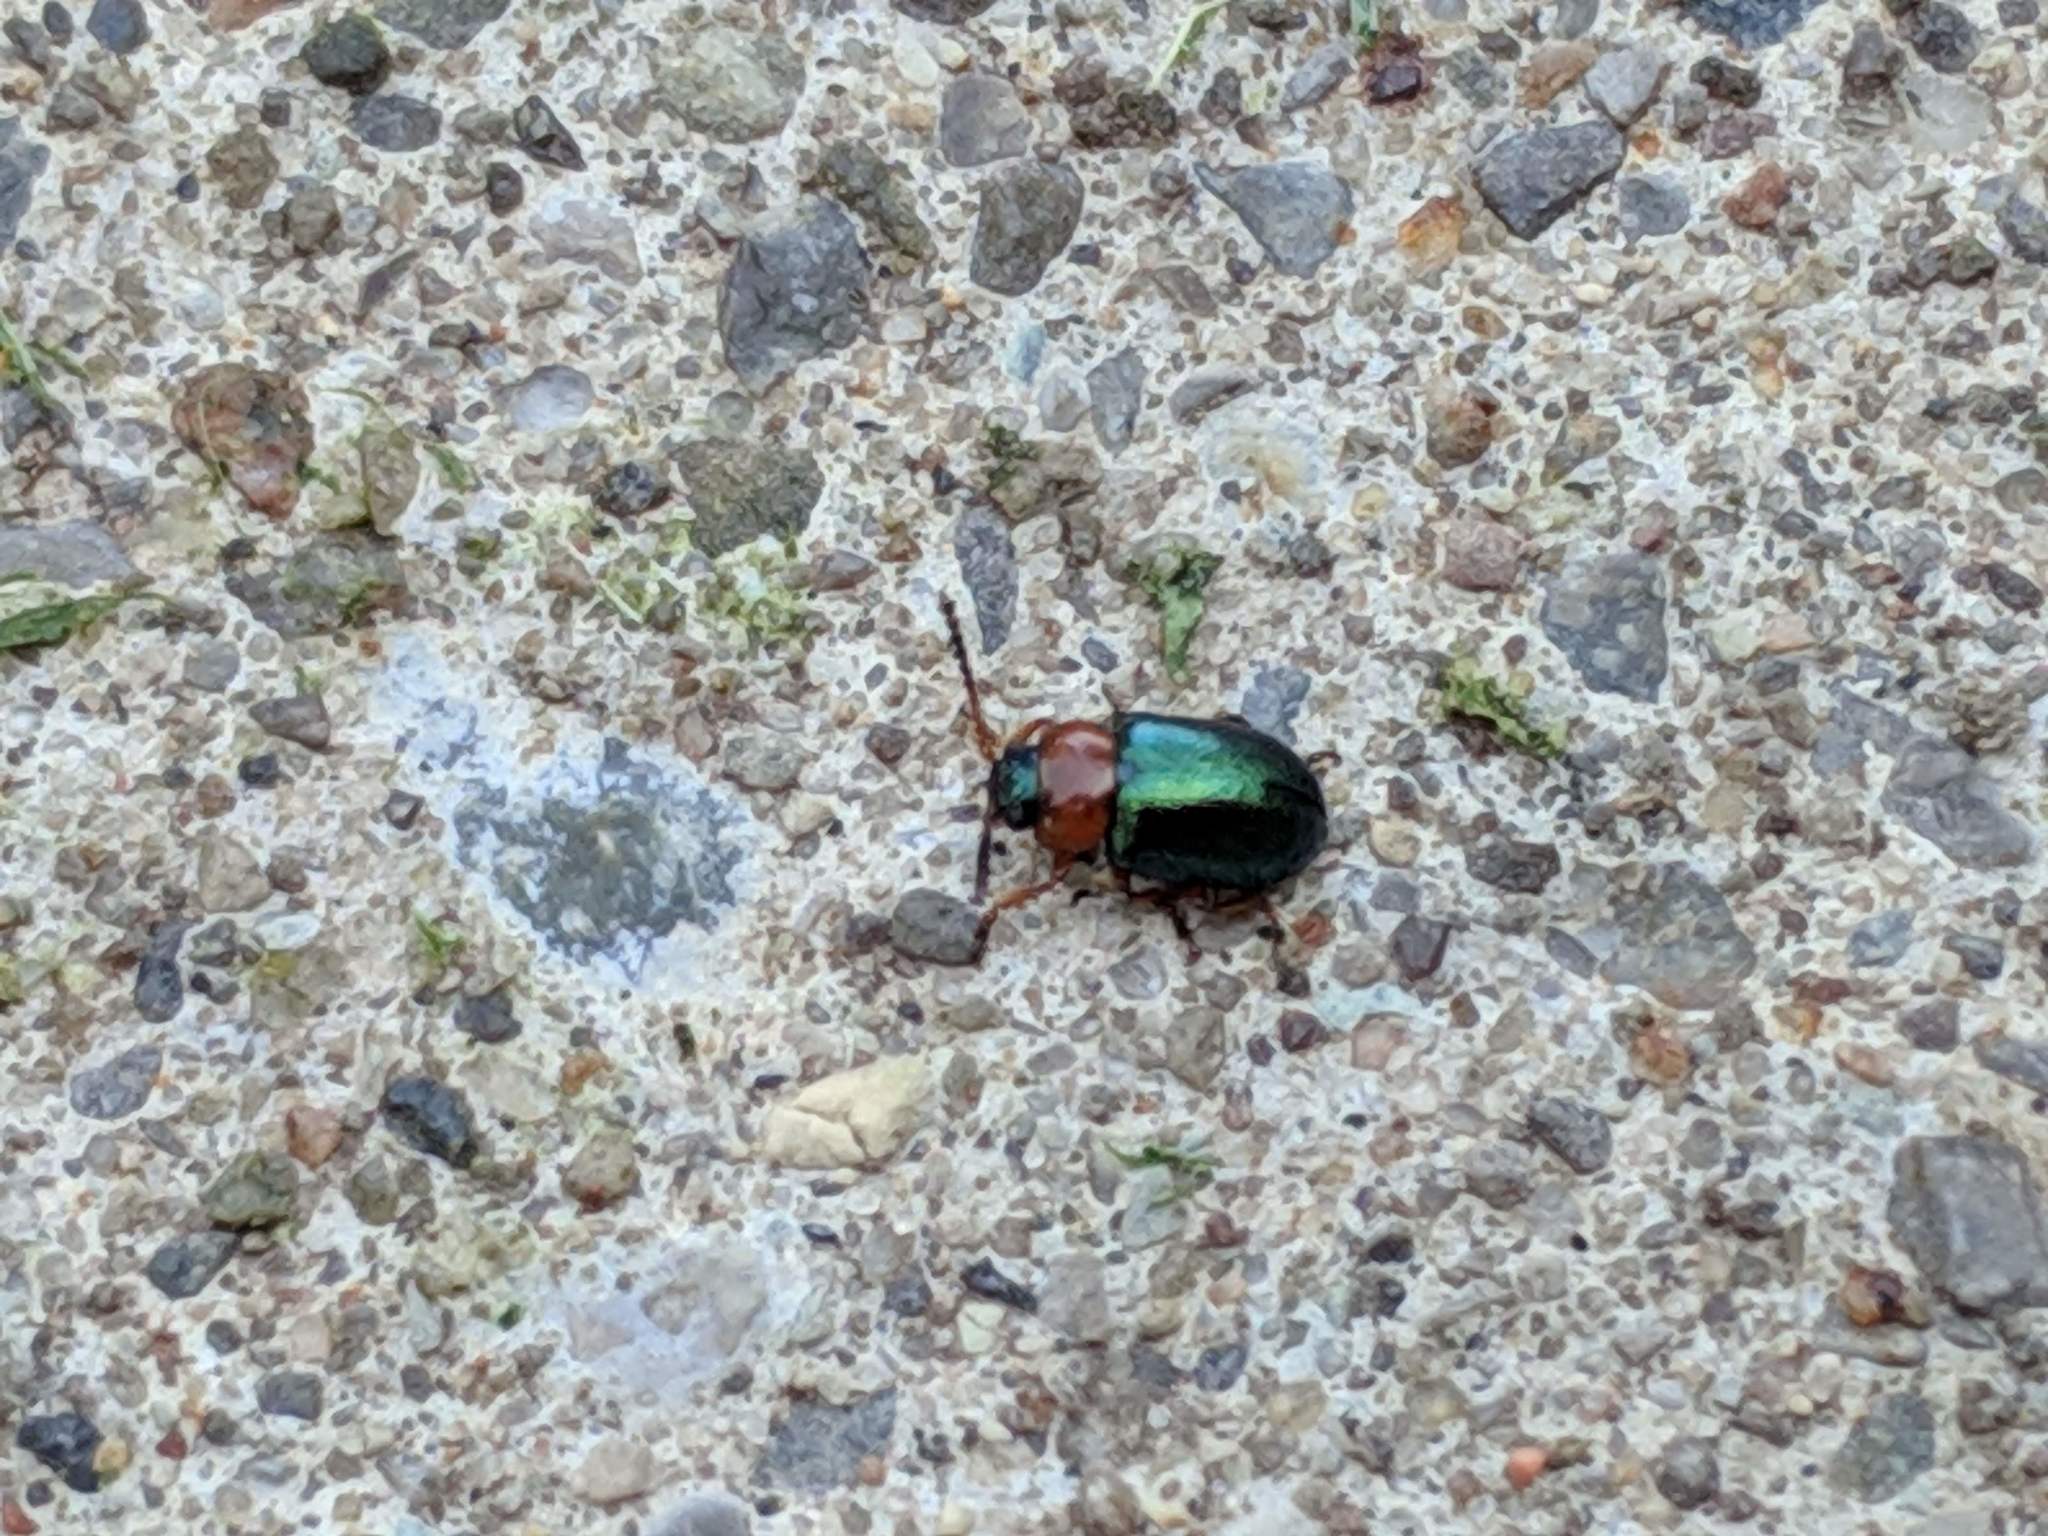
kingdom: Animalia
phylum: Arthropoda
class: Insecta
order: Coleoptera
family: Chrysomelidae
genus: Gastrophysa
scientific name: Gastrophysa polygoni
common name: Knotweed leaf beetle
